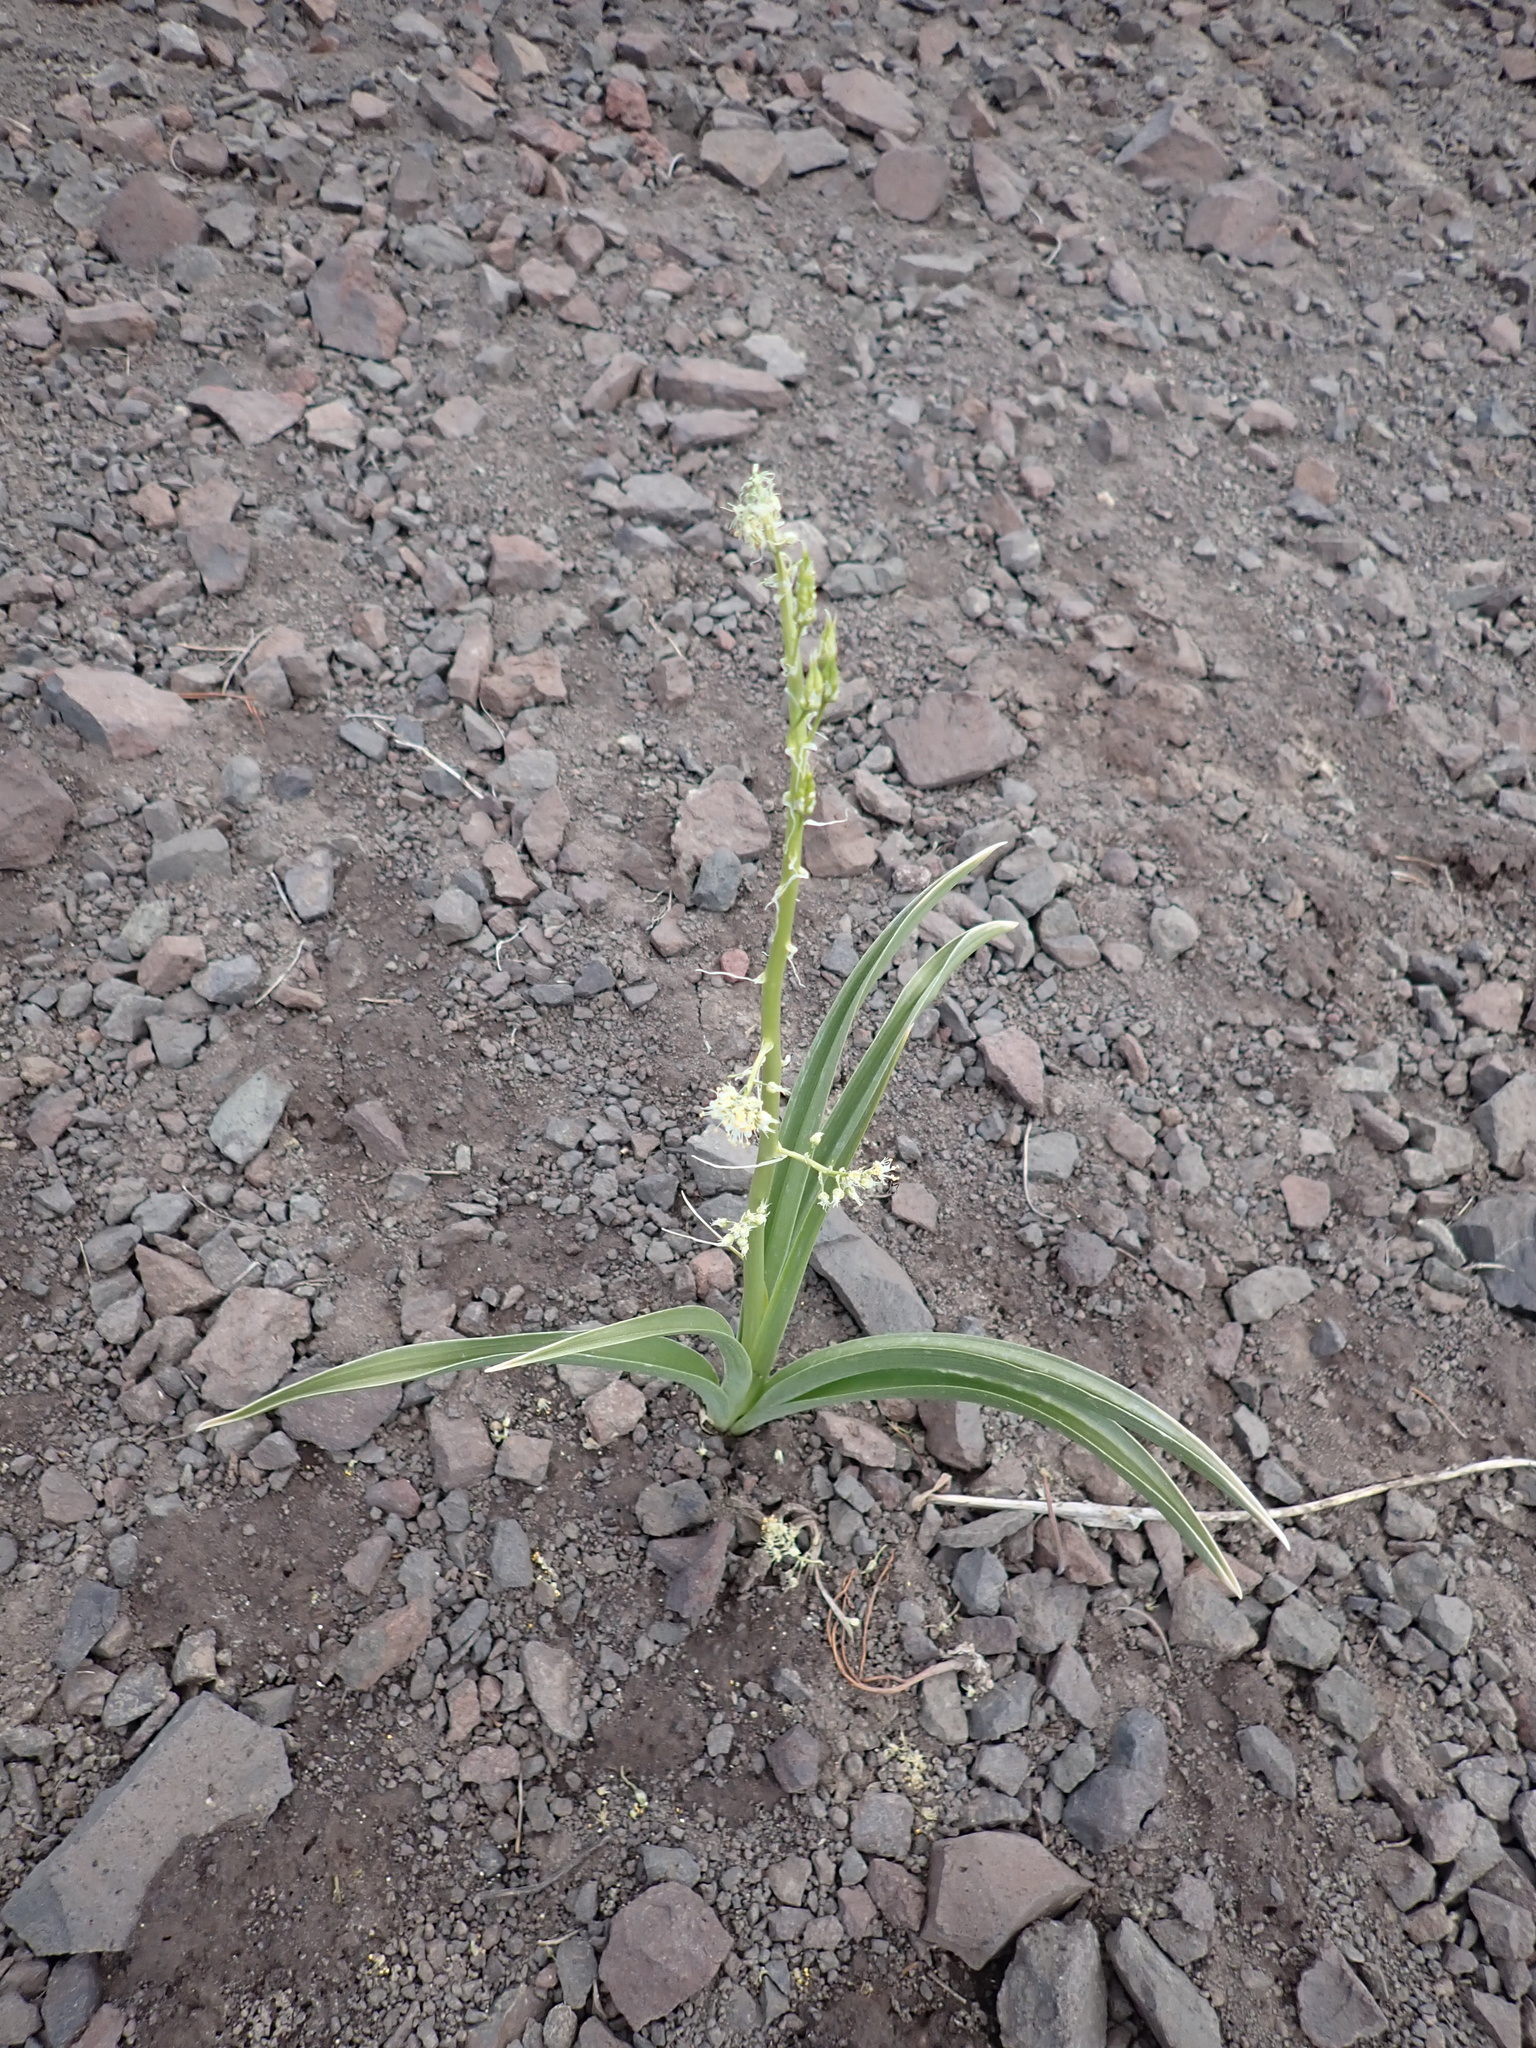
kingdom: Plantae
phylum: Tracheophyta
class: Liliopsida
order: Liliales
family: Melanthiaceae
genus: Toxicoscordion
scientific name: Toxicoscordion paniculatum
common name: Foothill death camas
